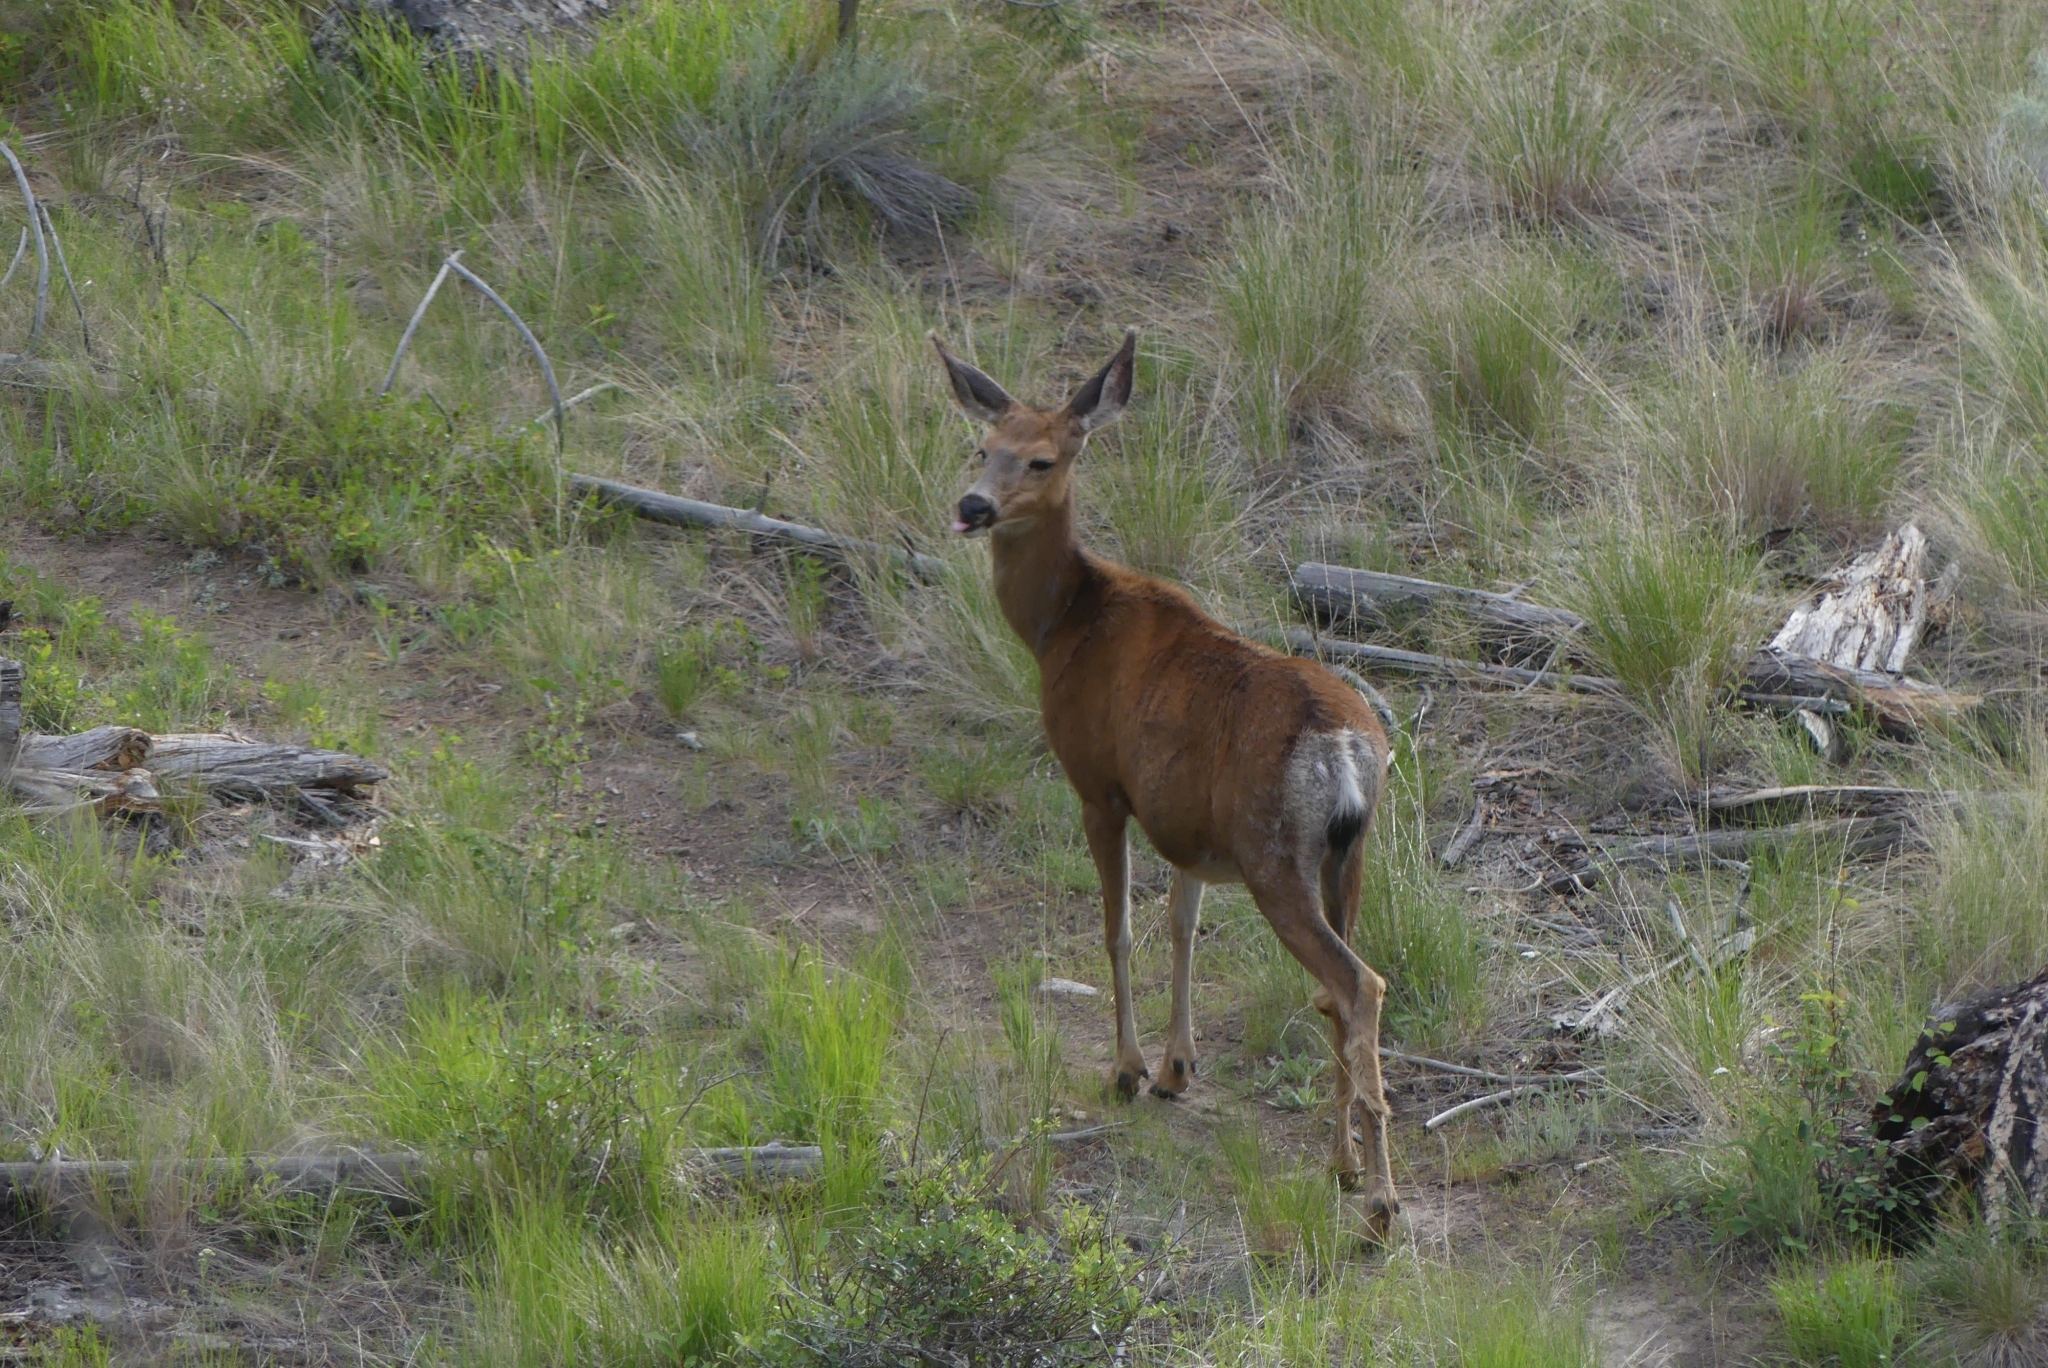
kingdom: Animalia
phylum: Chordata
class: Mammalia
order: Artiodactyla
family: Cervidae
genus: Odocoileus
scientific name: Odocoileus hemionus
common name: Mule deer
